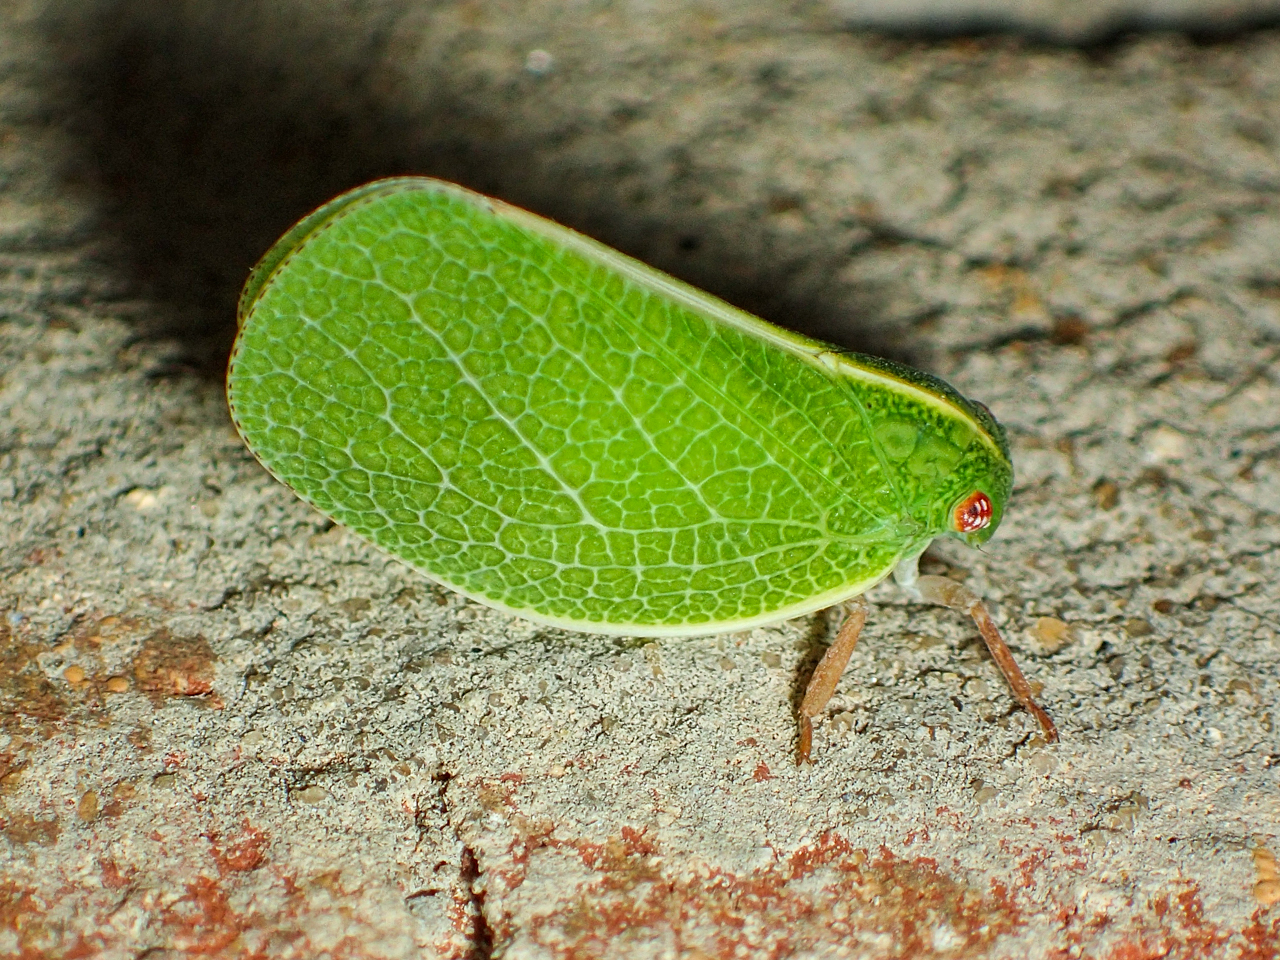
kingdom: Animalia
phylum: Arthropoda
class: Insecta
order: Hemiptera
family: Acanaloniidae
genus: Acanalonia
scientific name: Acanalonia servillei
